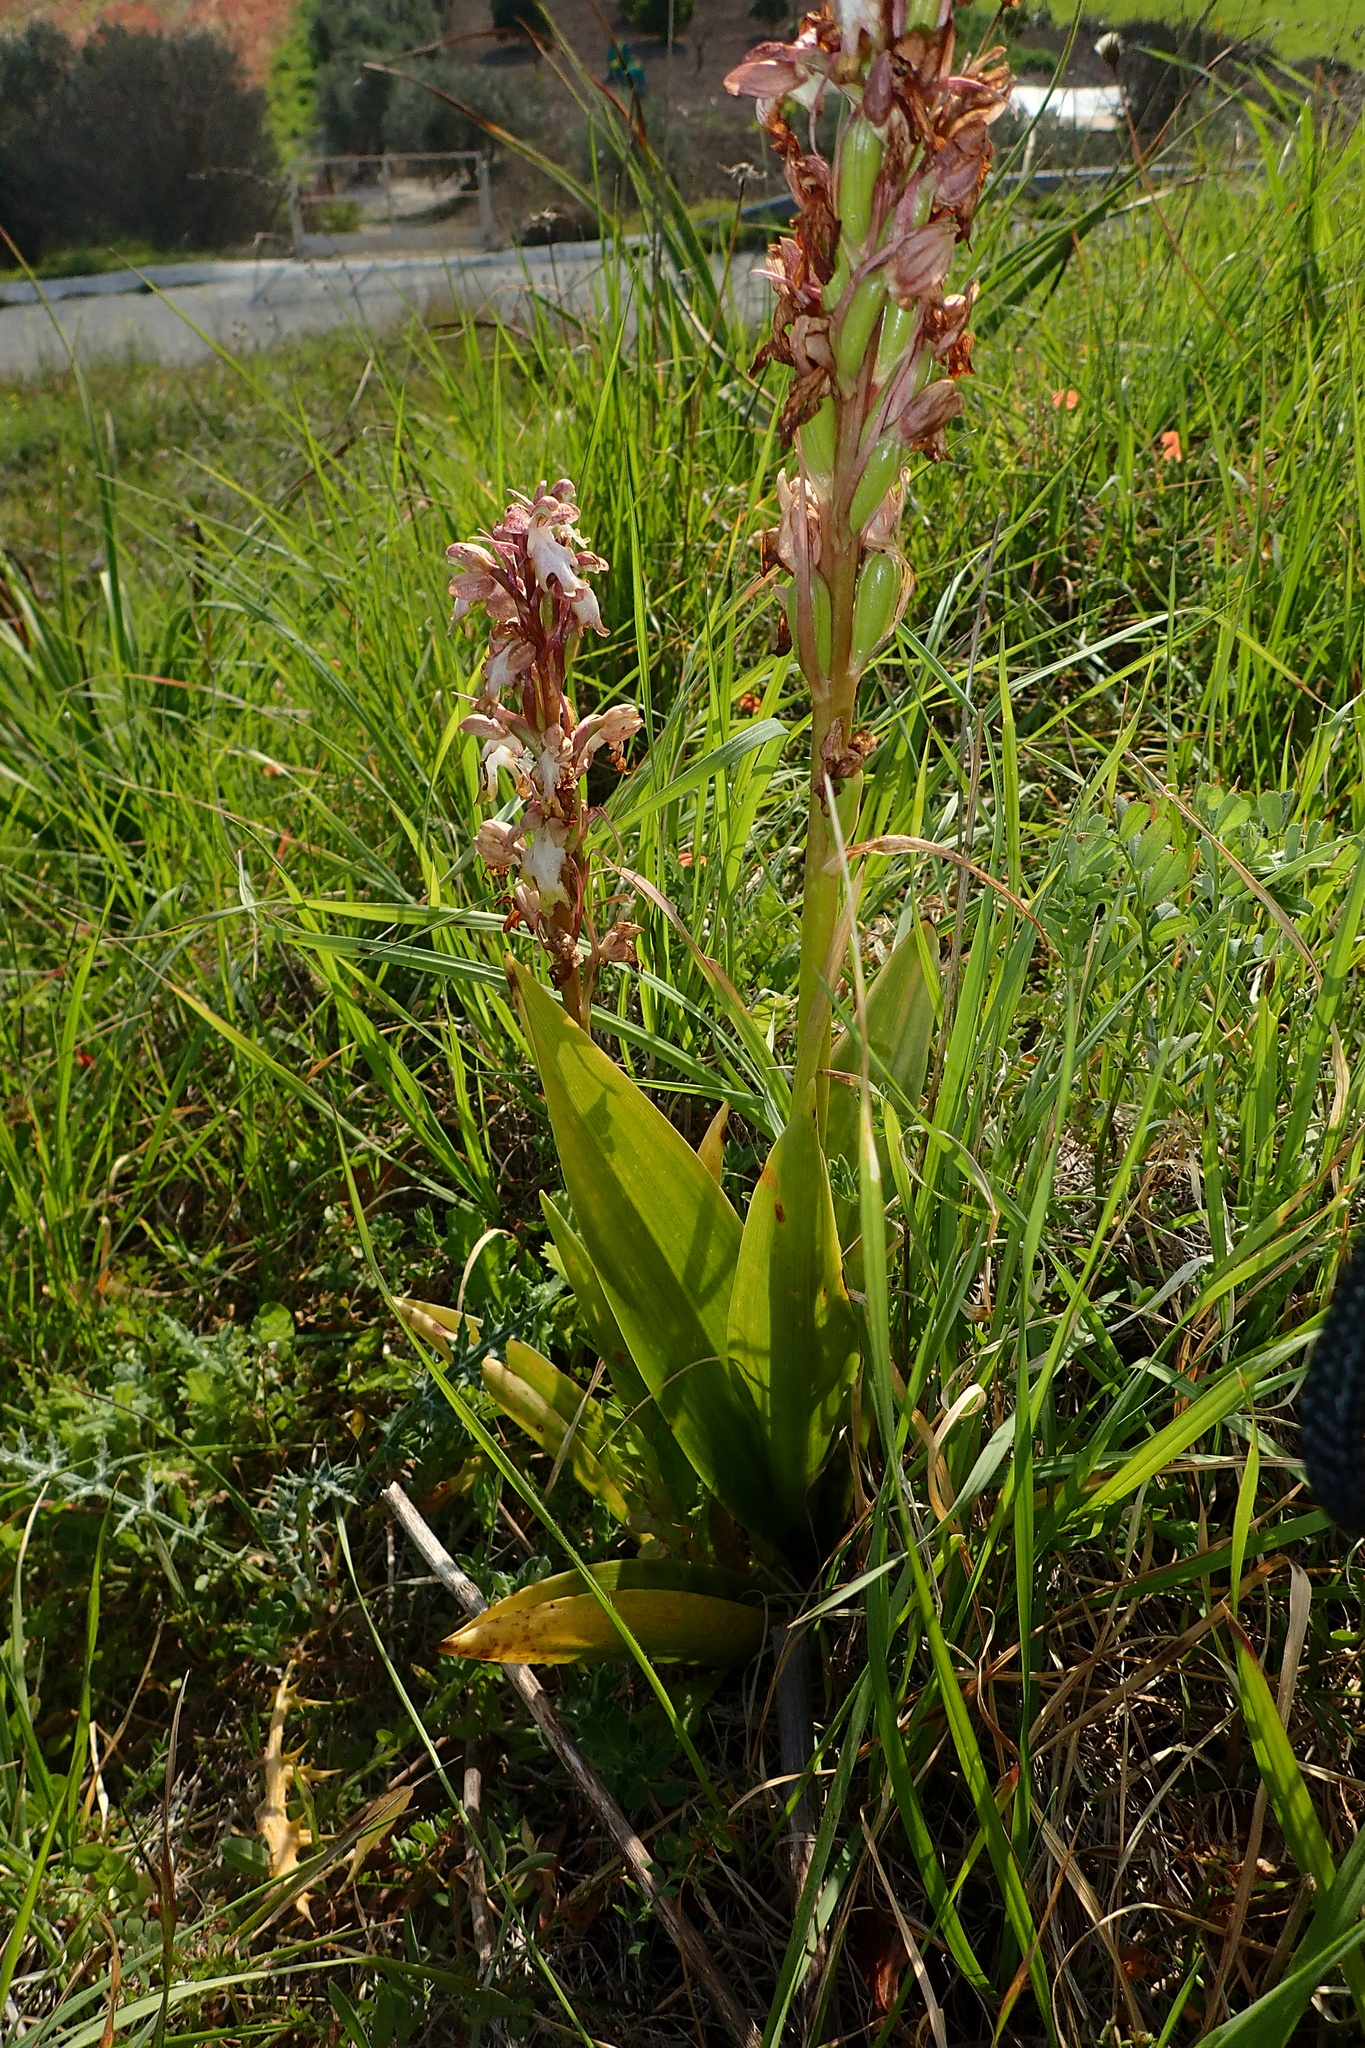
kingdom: Plantae
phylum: Tracheophyta
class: Liliopsida
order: Asparagales
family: Orchidaceae
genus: Himantoglossum
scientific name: Himantoglossum robertianum
